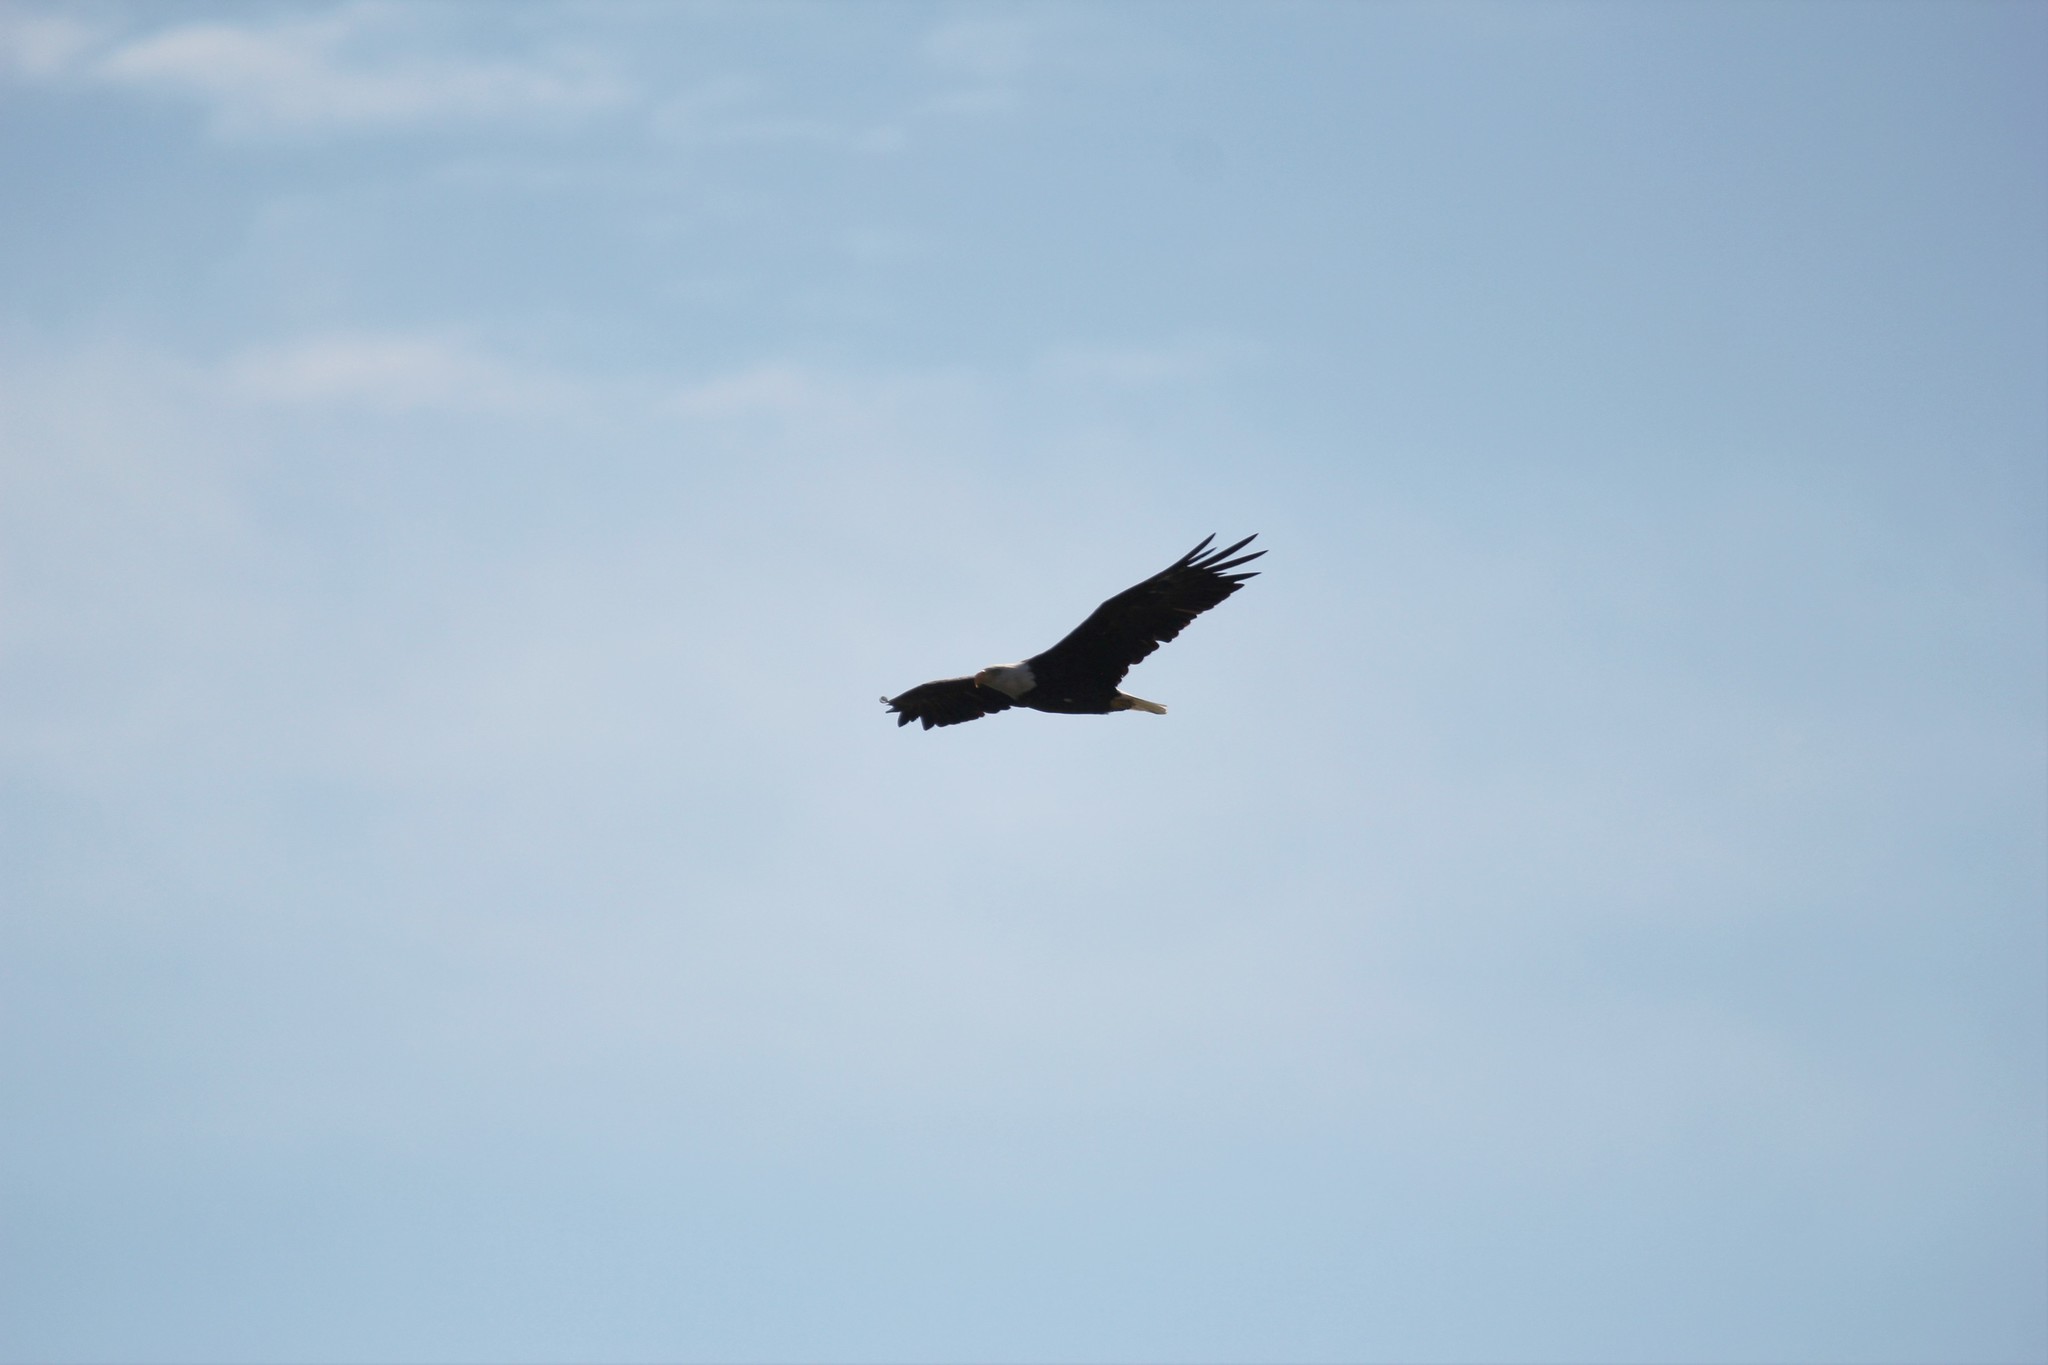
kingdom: Animalia
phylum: Chordata
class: Aves
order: Accipitriformes
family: Accipitridae
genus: Haliaeetus
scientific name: Haliaeetus leucocephalus
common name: Bald eagle
